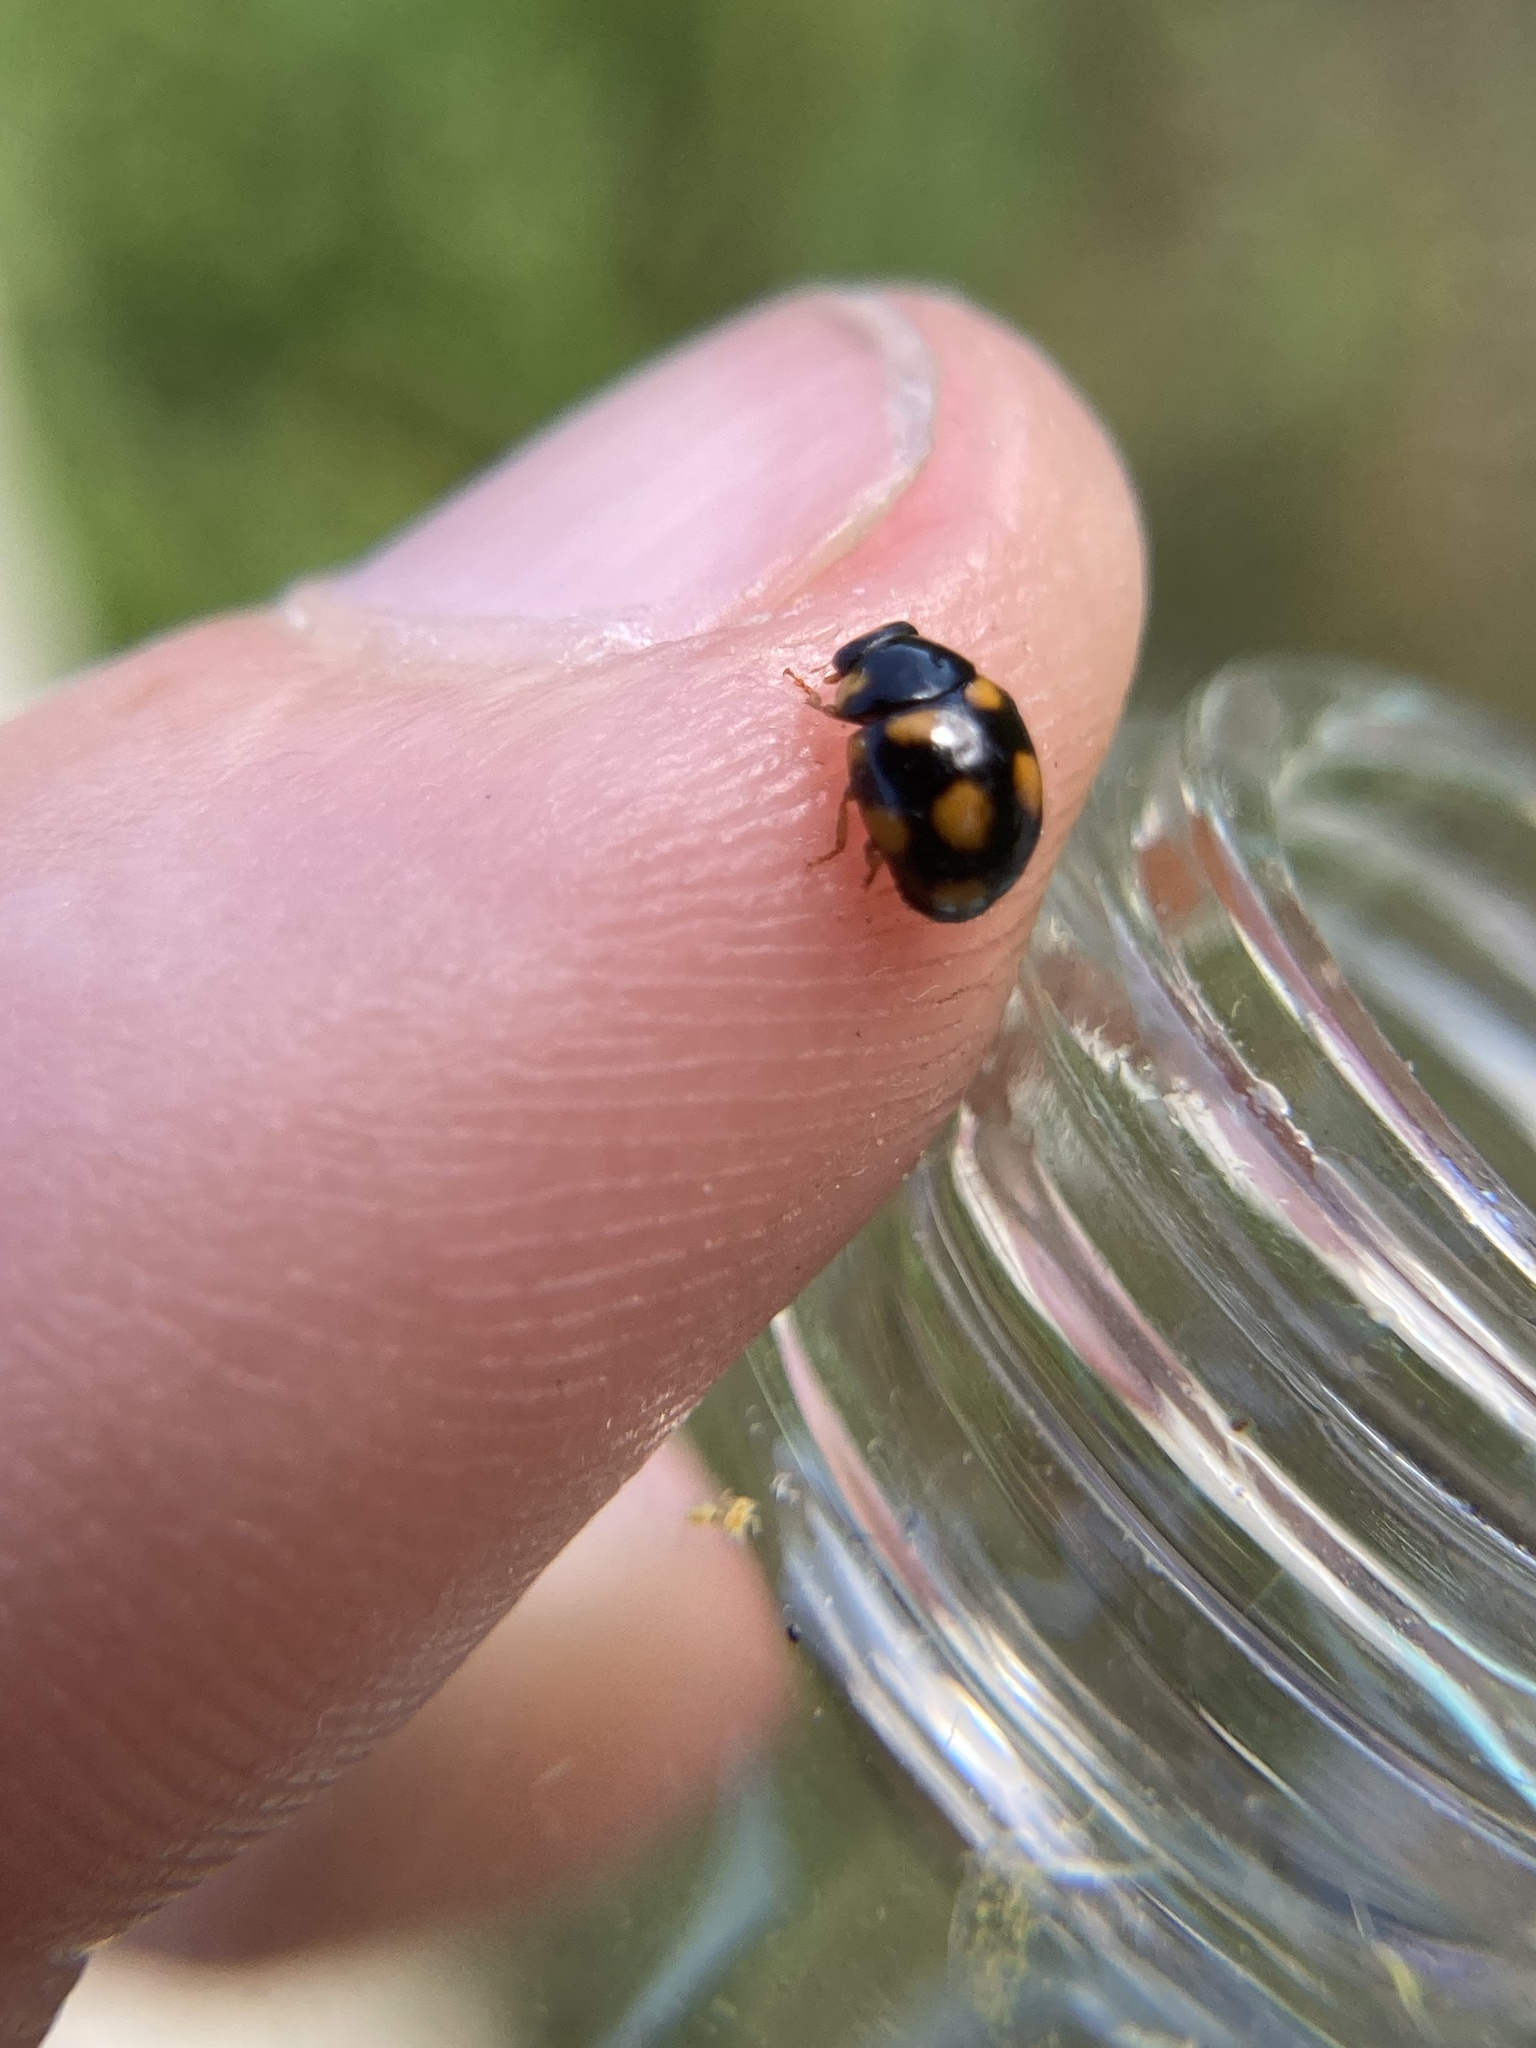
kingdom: Animalia
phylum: Arthropoda
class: Insecta
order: Coleoptera
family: Coccinellidae
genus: Brachiacantha
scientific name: Brachiacantha ursina
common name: Ursine spurleg lady beetle
